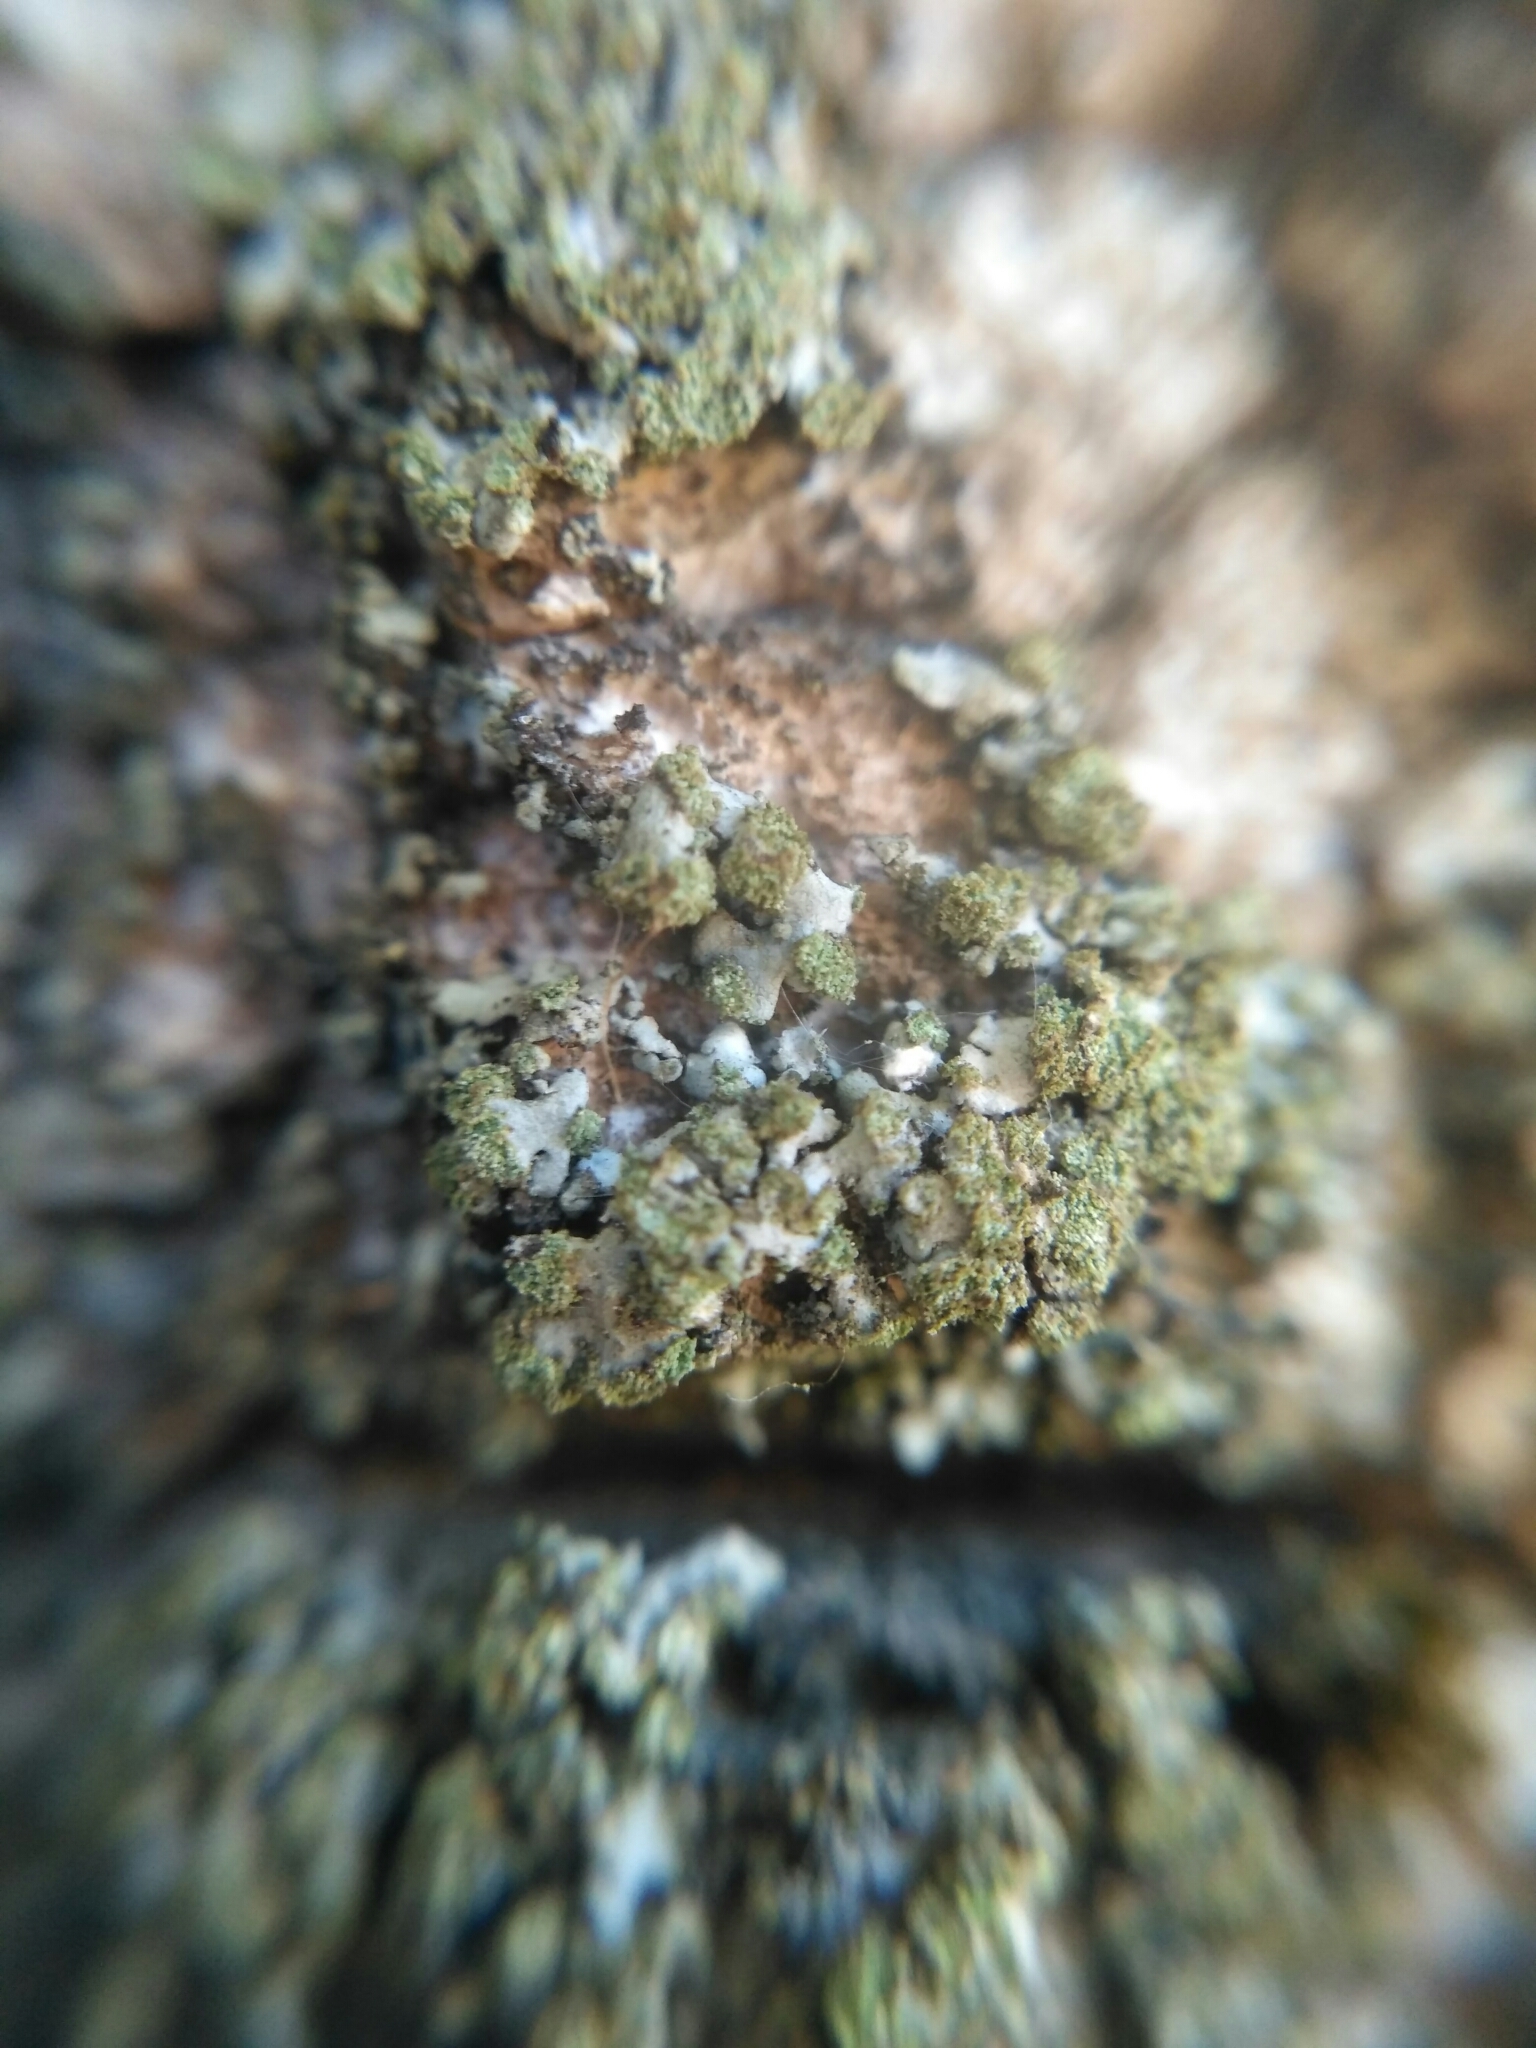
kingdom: Fungi
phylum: Ascomycota
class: Lecanoromycetes
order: Caliciales
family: Physciaceae
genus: Phaeophyscia
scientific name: Phaeophyscia orbicularis
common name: Mealy shadow lichen
